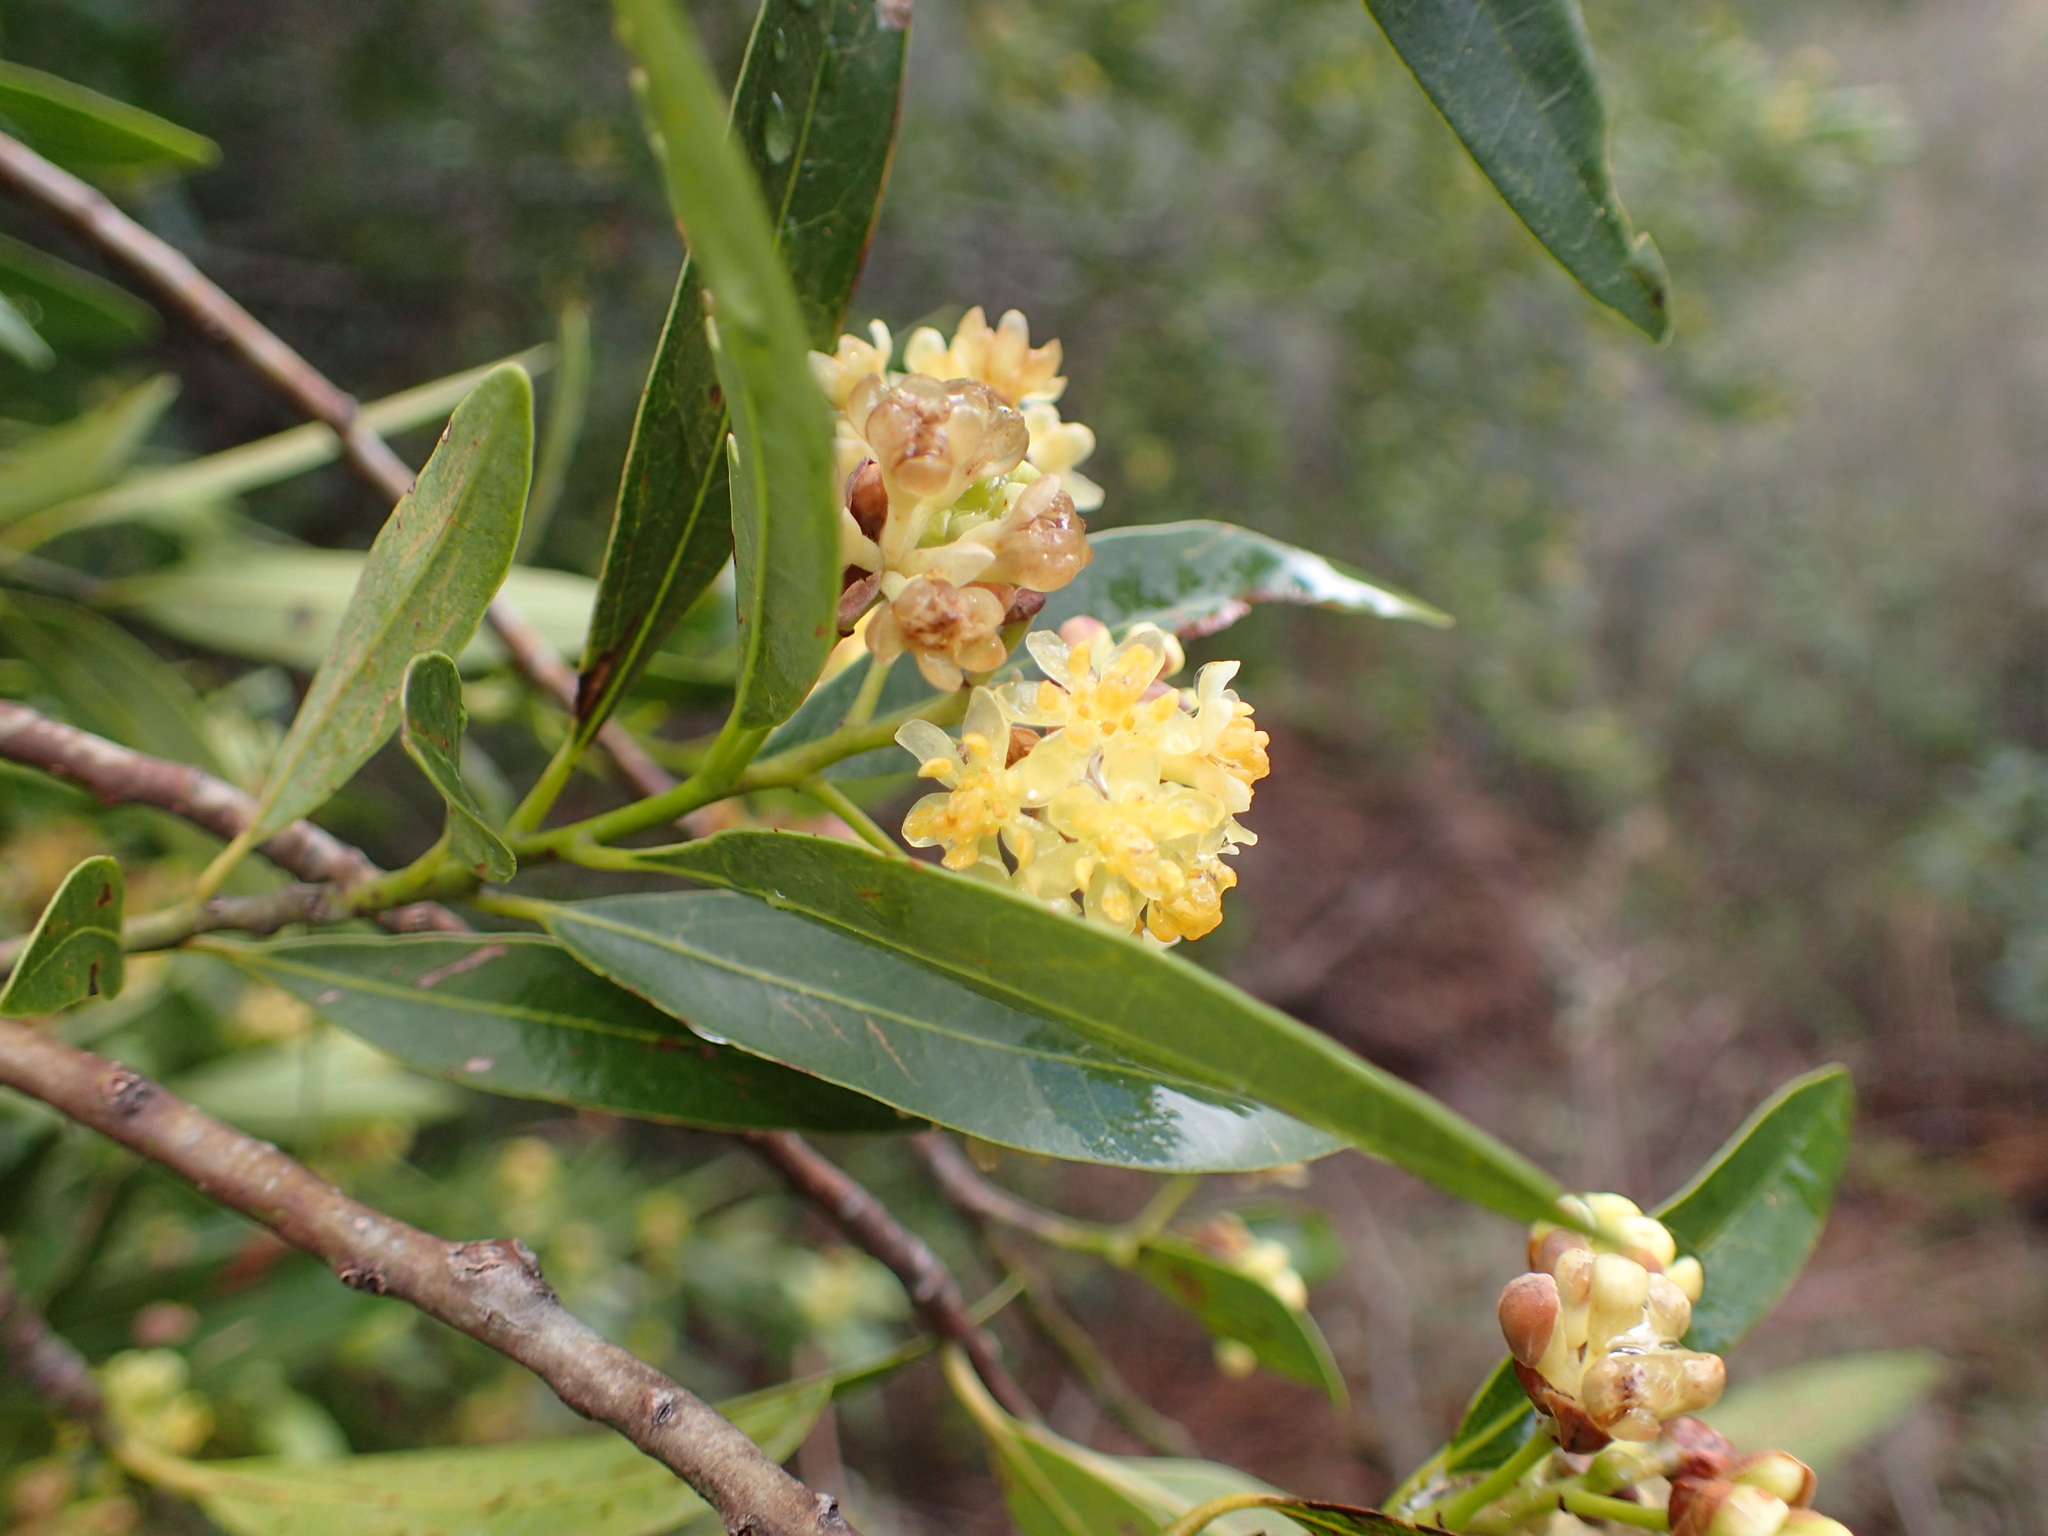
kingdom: Plantae
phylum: Tracheophyta
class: Magnoliopsida
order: Laurales
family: Lauraceae
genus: Umbellularia
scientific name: Umbellularia californica
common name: California bay
